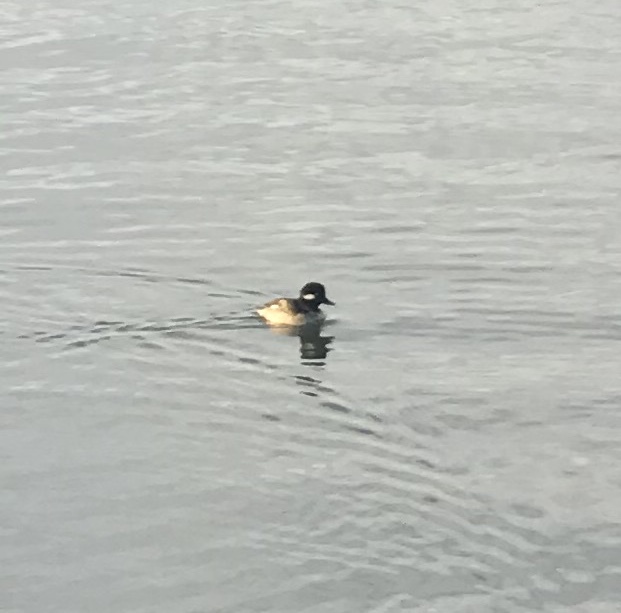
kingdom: Animalia
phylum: Chordata
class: Aves
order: Anseriformes
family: Anatidae
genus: Bucephala
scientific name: Bucephala albeola
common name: Bufflehead
